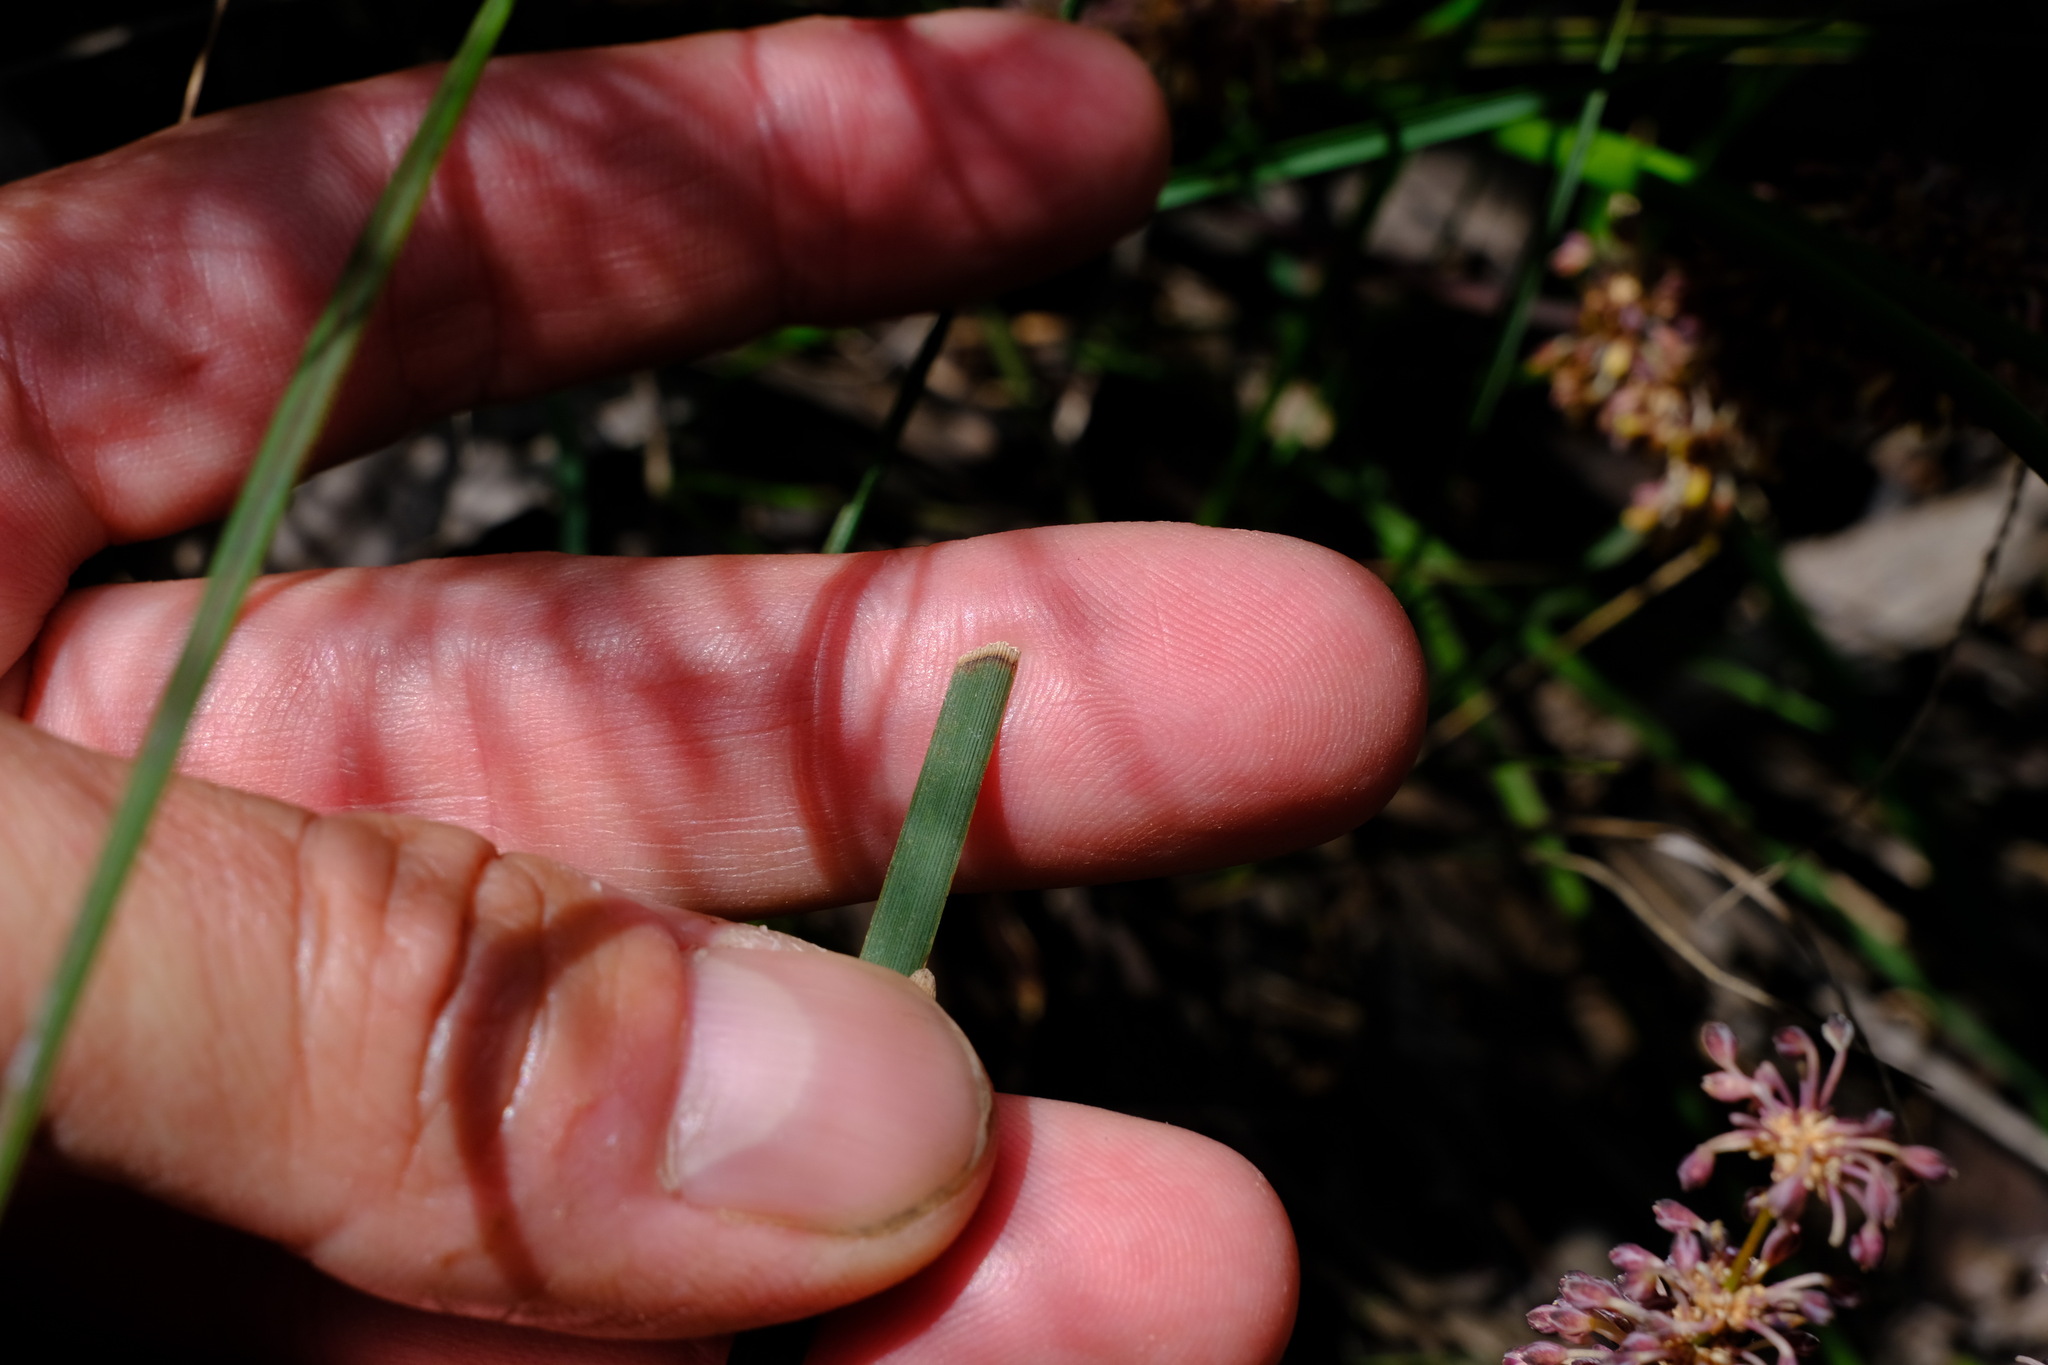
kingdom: Plantae
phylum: Tracheophyta
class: Liliopsida
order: Asparagales
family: Asparagaceae
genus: Lomandra
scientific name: Lomandra multiflora
